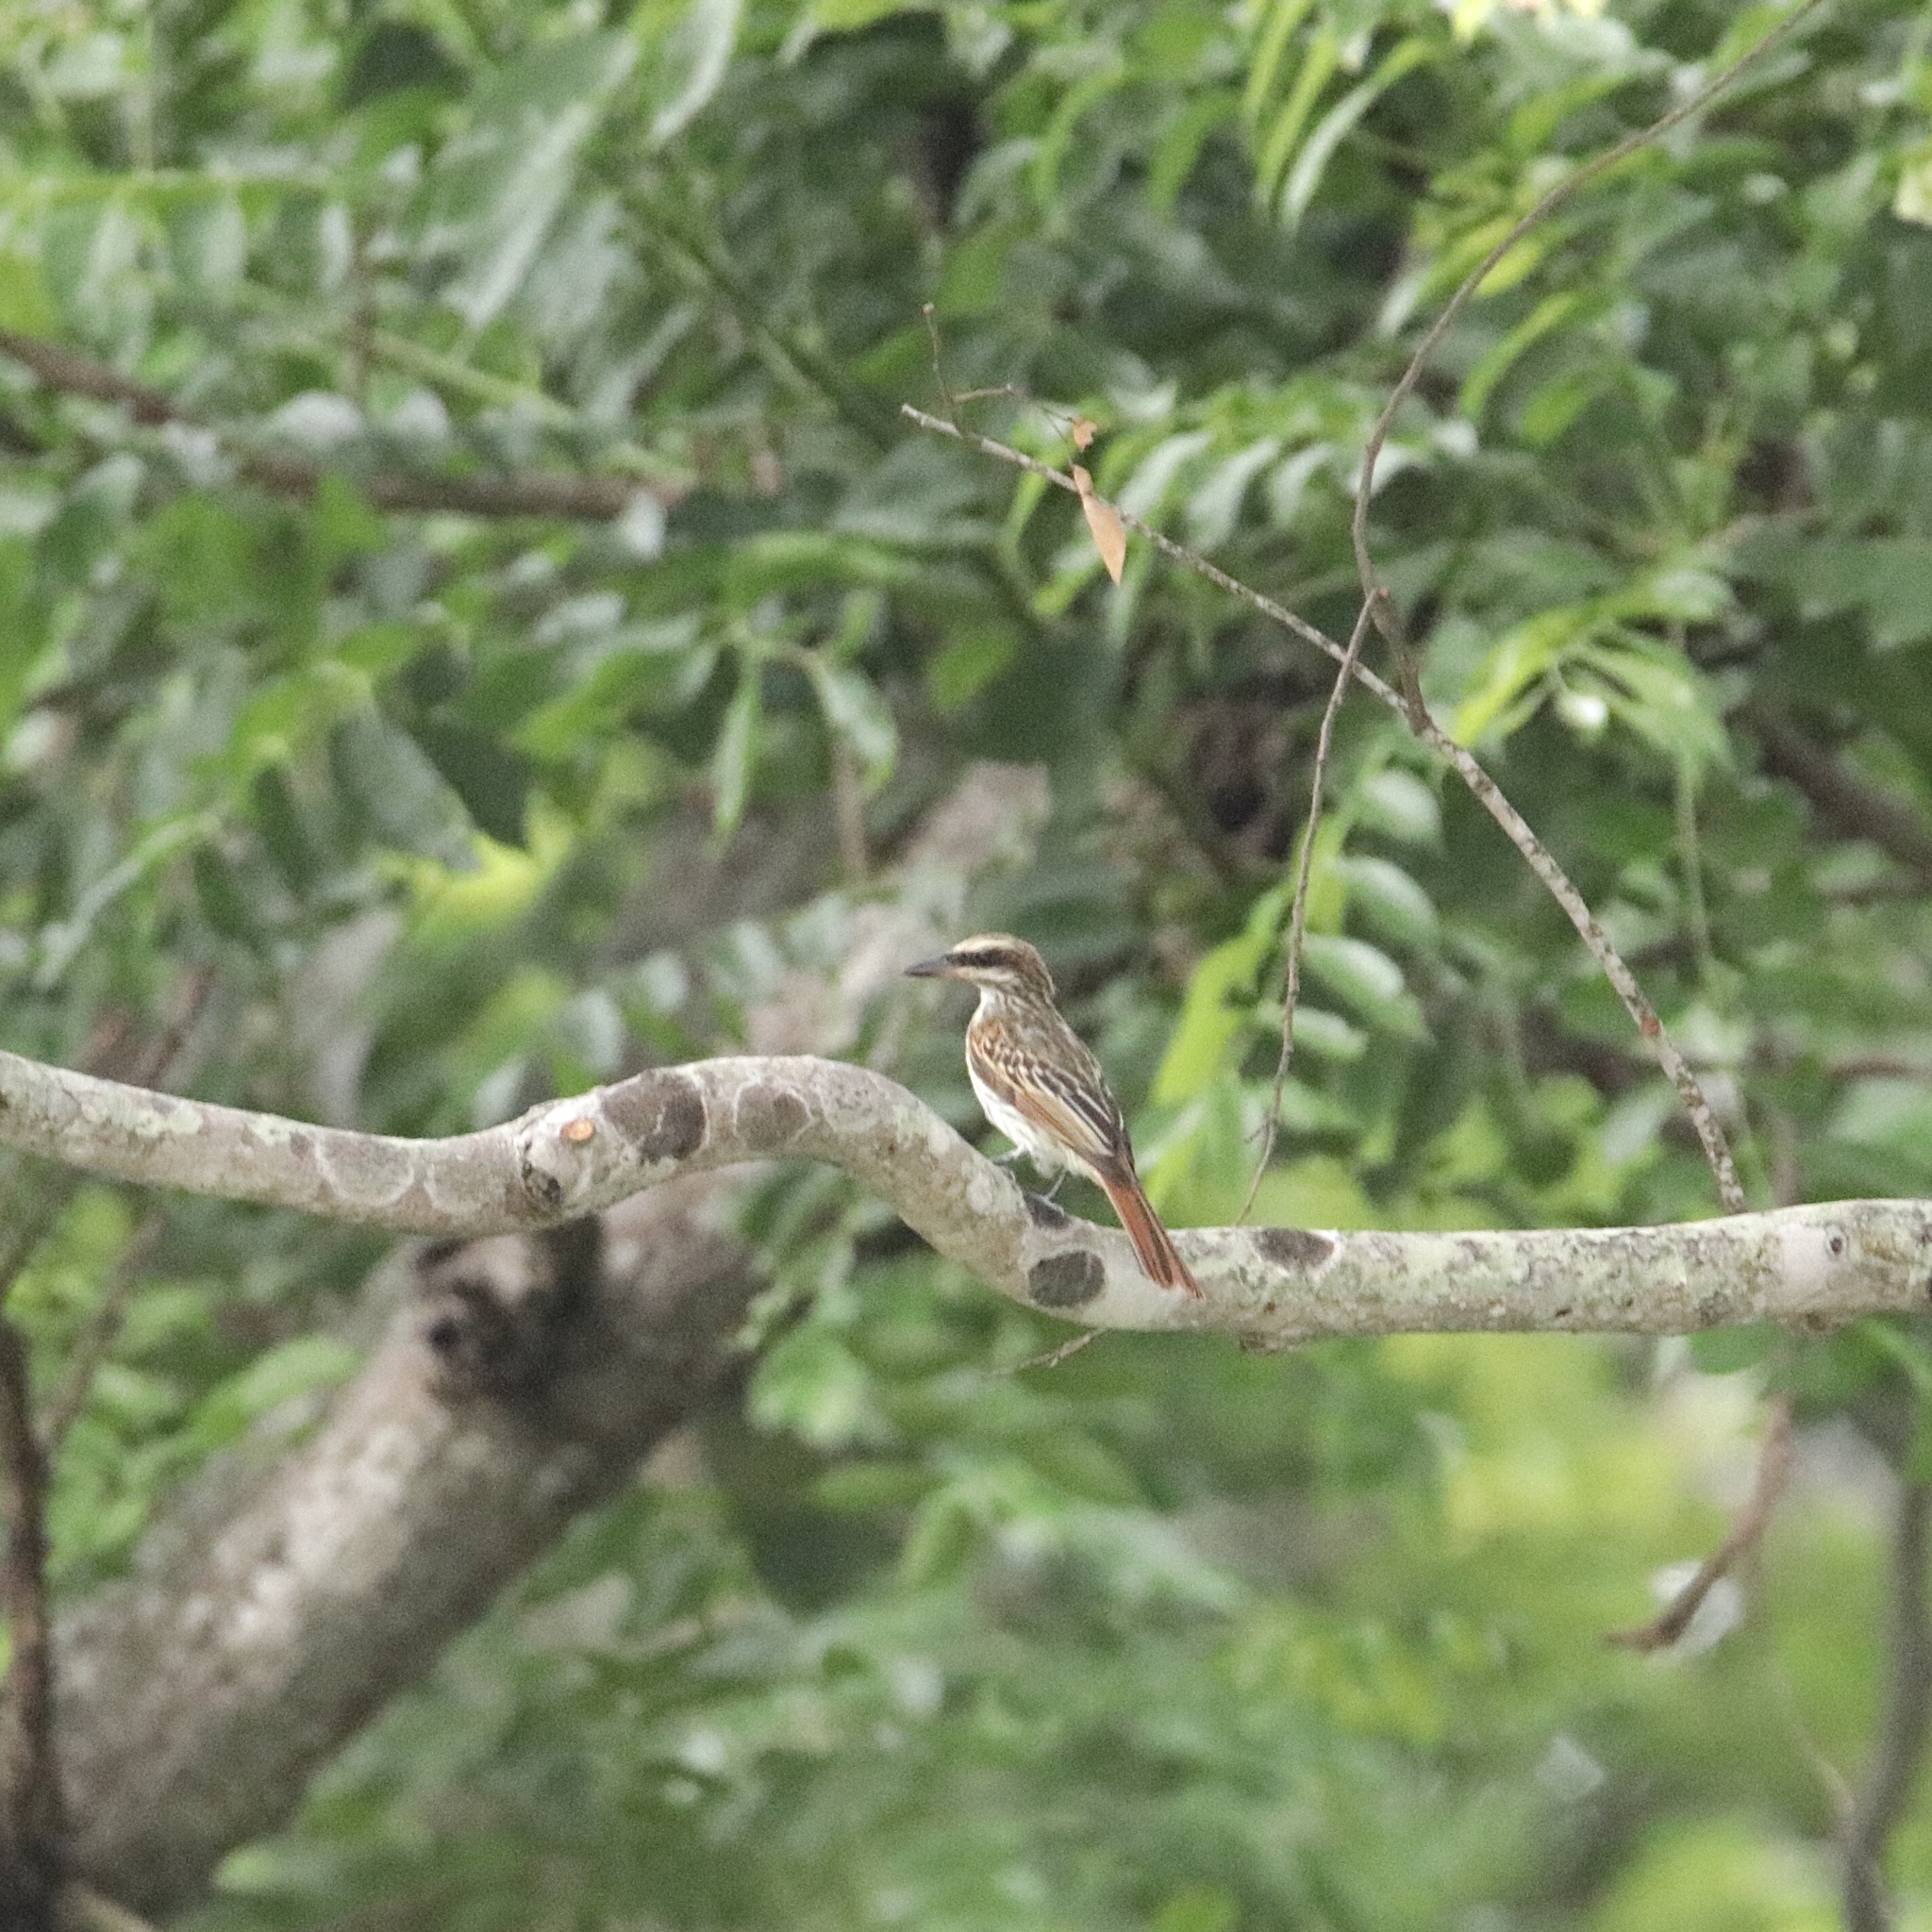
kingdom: Animalia
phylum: Chordata
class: Aves
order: Passeriformes
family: Tyrannidae
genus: Myiodynastes
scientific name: Myiodynastes maculatus
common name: Streaked flycatcher
